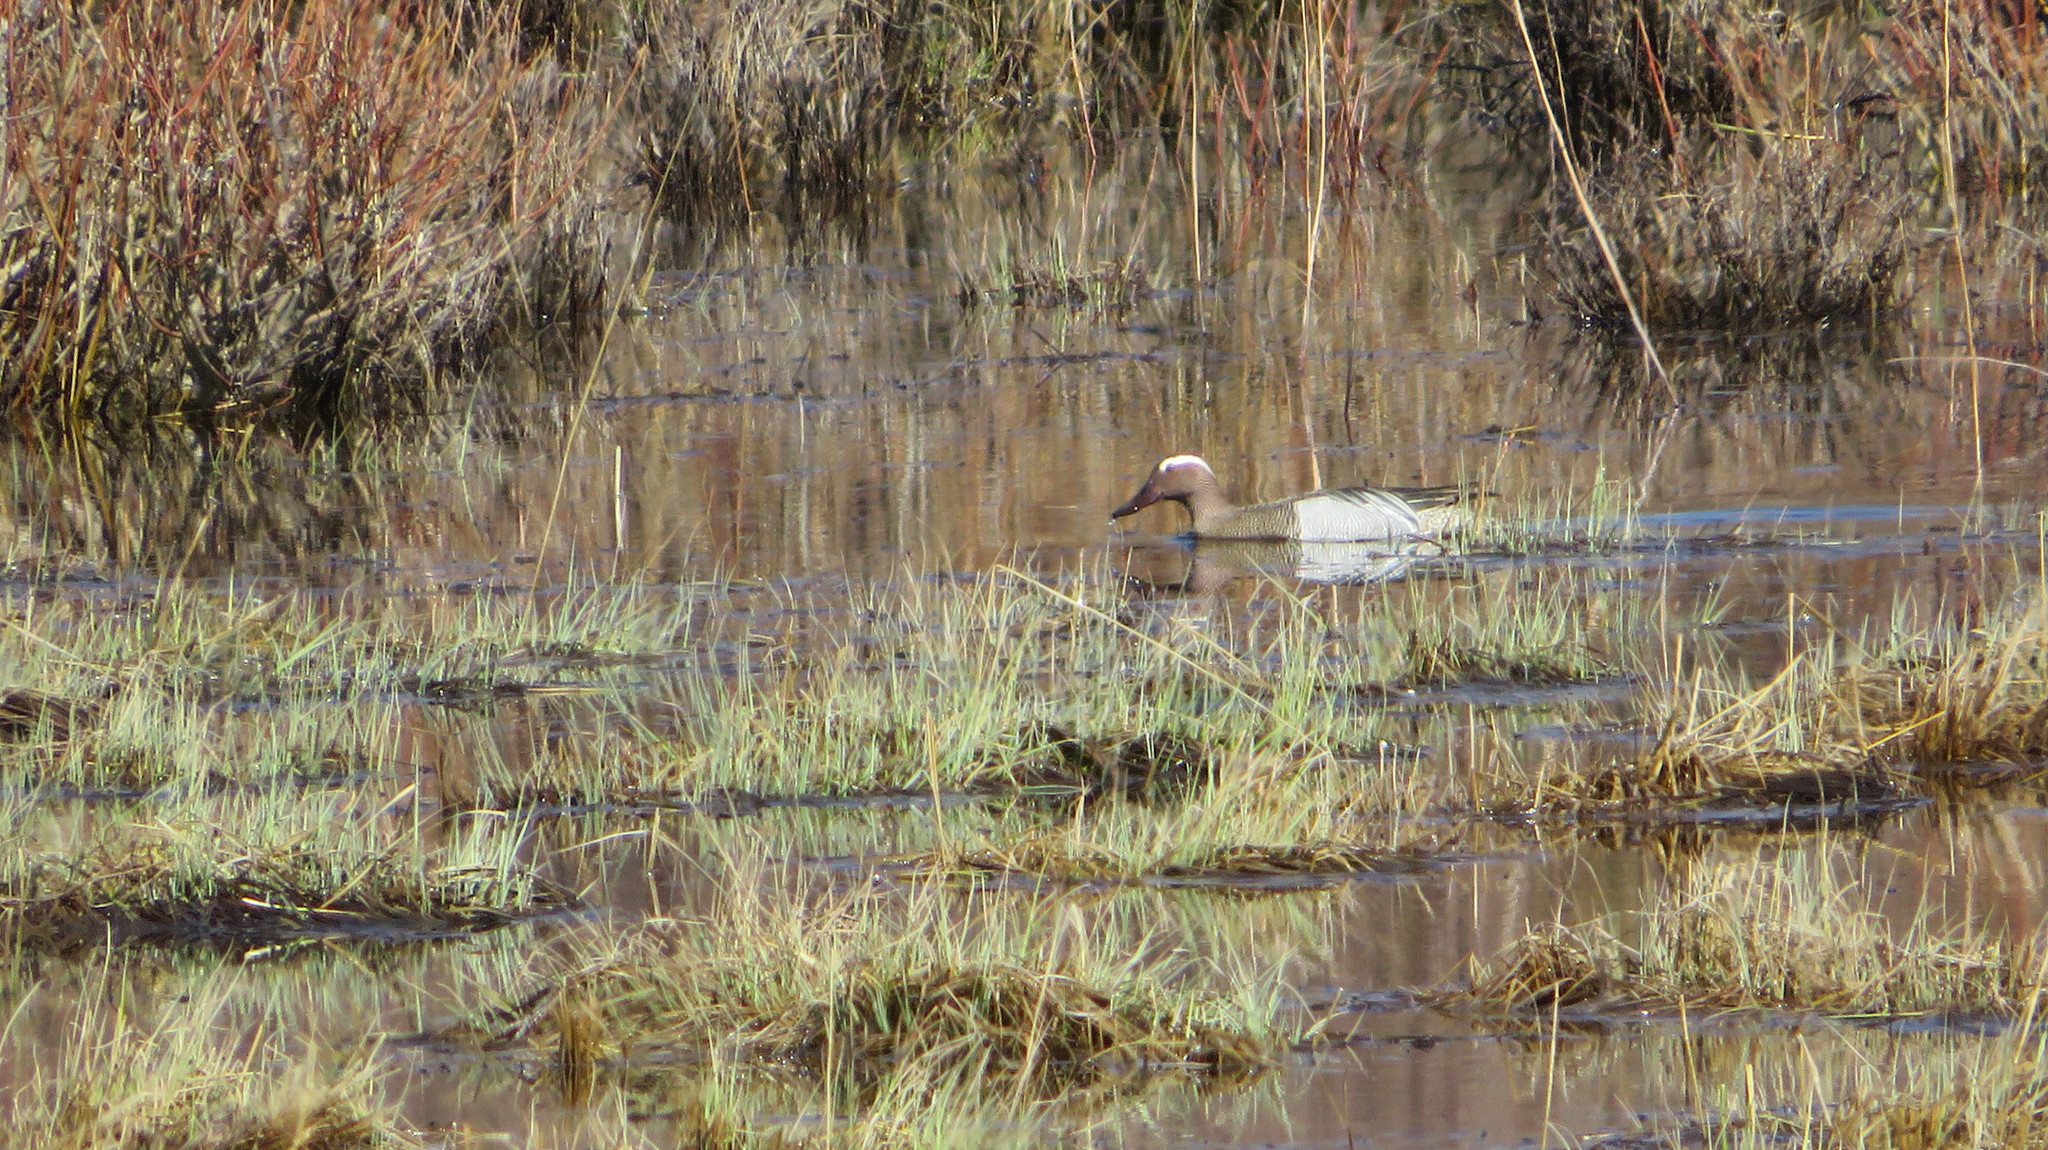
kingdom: Animalia
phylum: Chordata
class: Aves
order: Anseriformes
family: Anatidae
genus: Spatula
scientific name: Spatula querquedula
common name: Garganey
